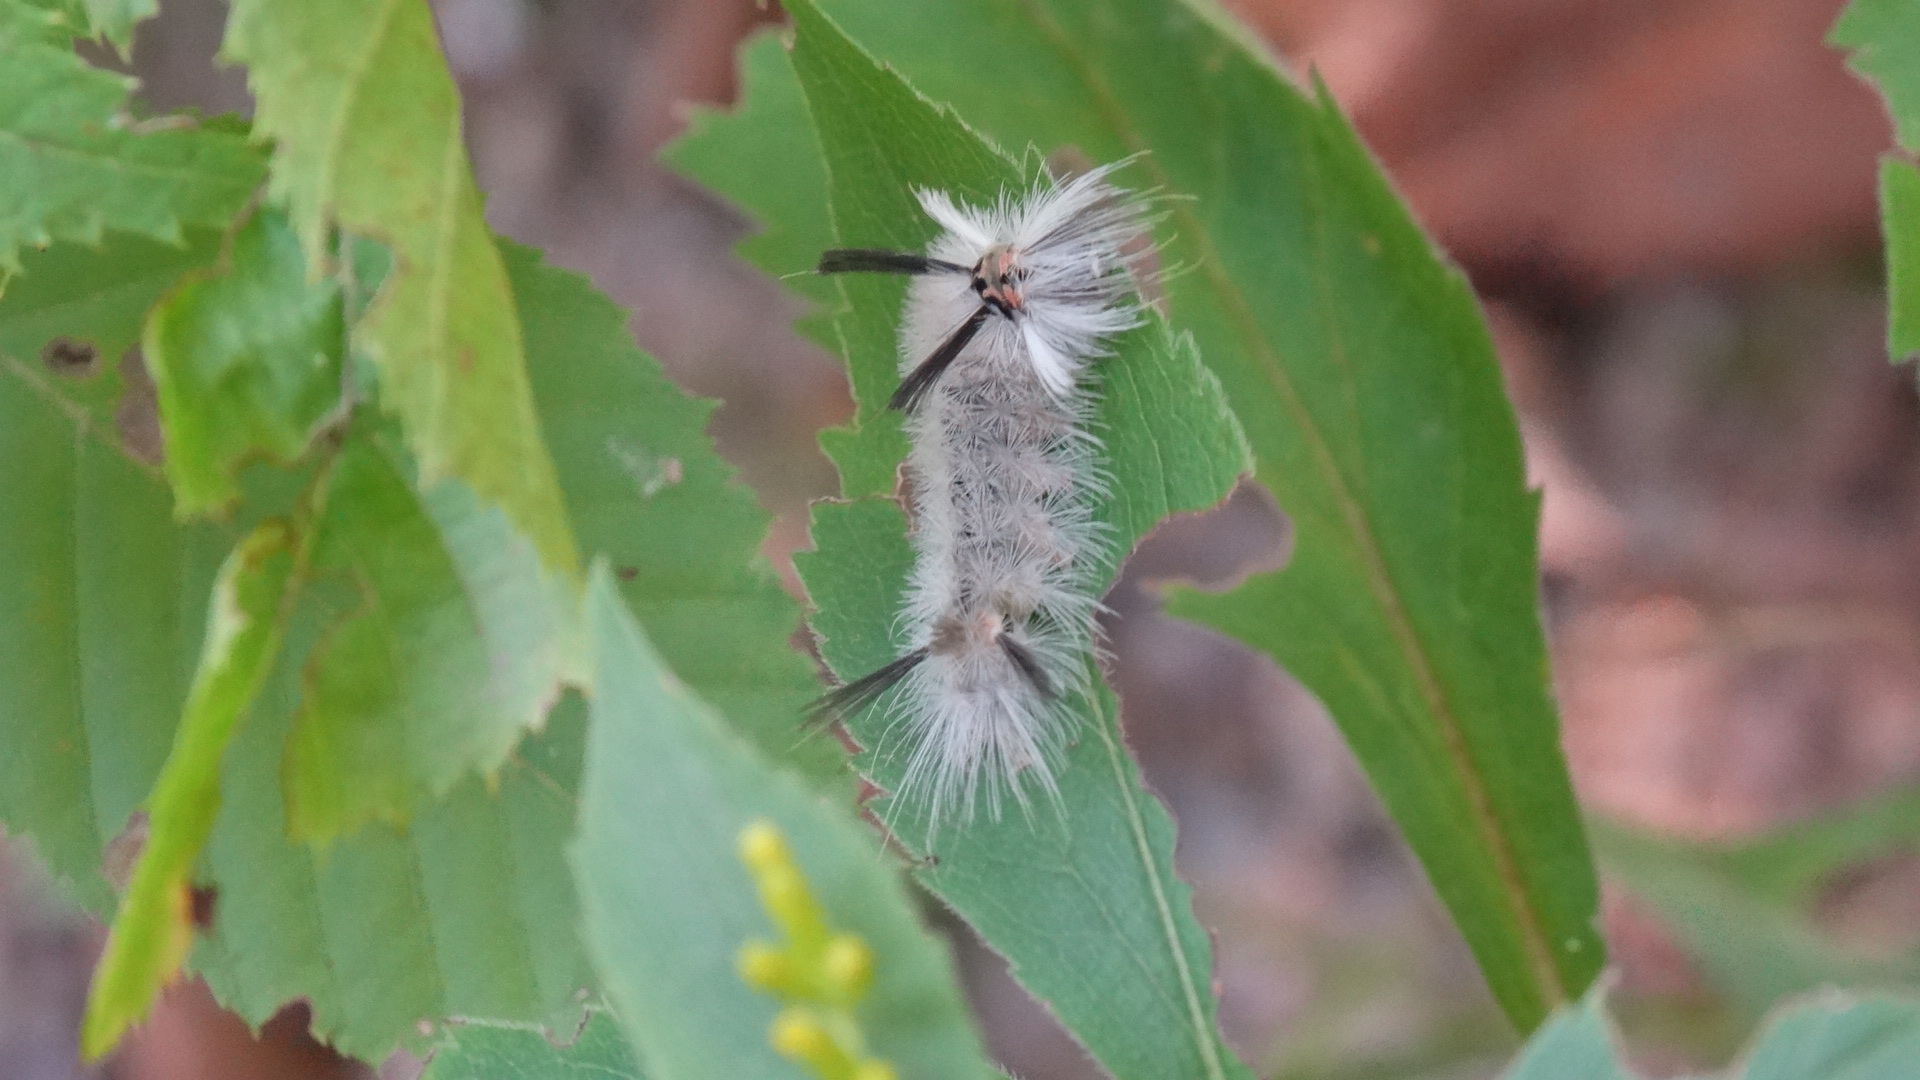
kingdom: Animalia
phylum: Arthropoda
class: Insecta
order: Lepidoptera
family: Erebidae
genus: Halysidota
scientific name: Halysidota tessellaris
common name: Banded tussock moth
